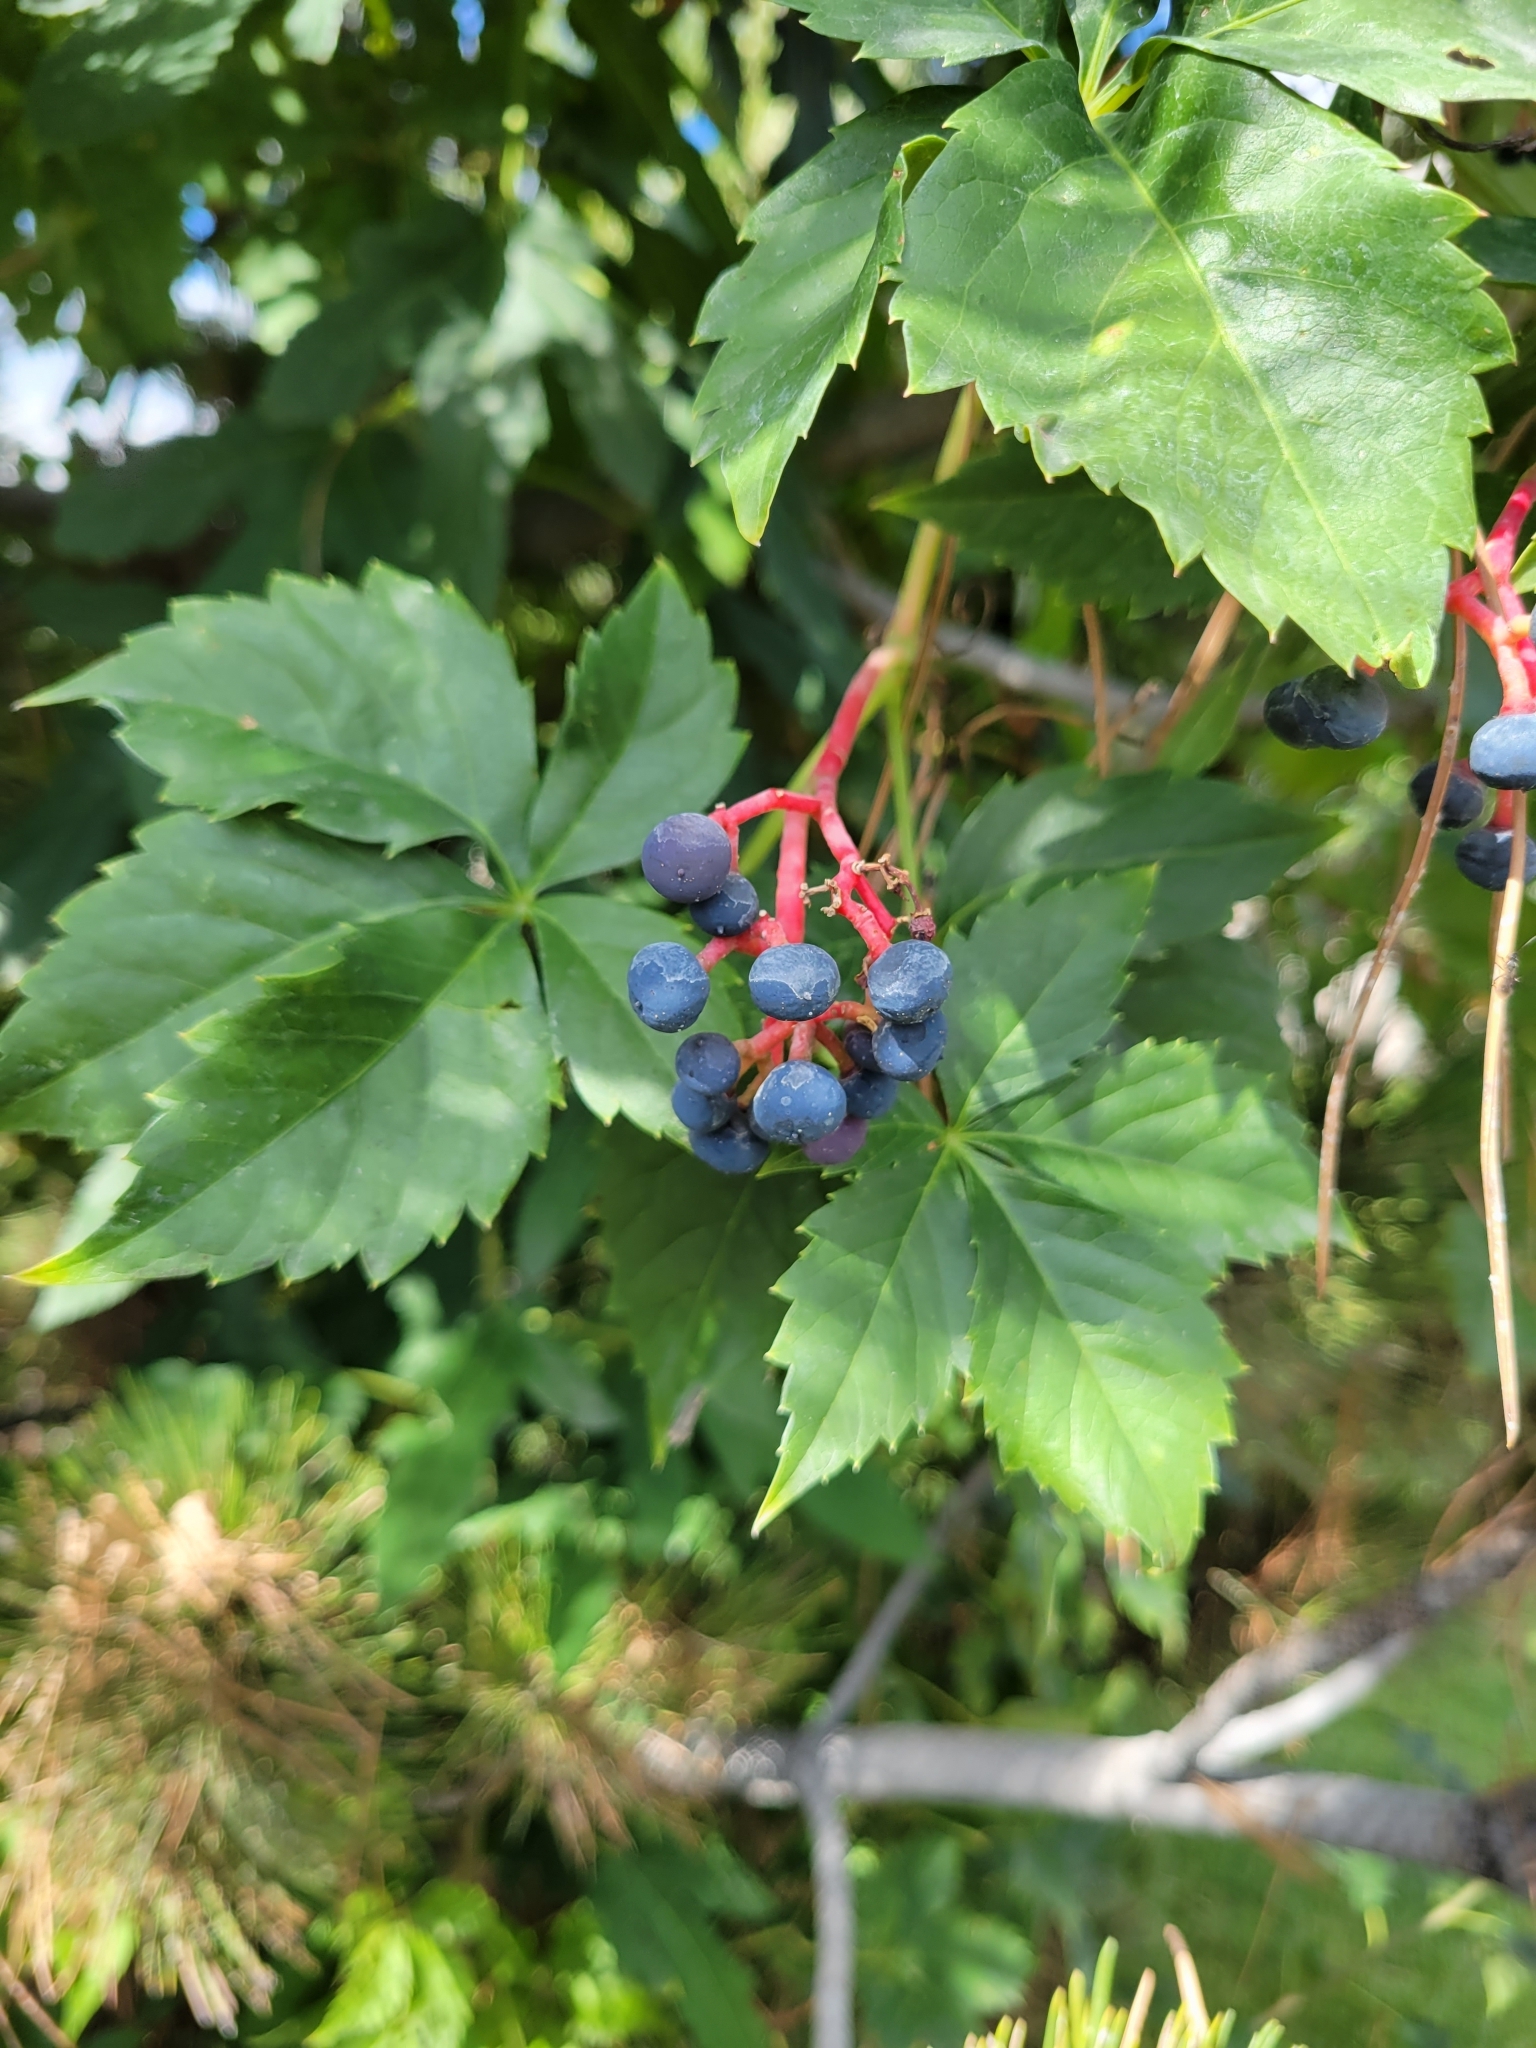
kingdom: Plantae
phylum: Tracheophyta
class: Magnoliopsida
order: Vitales
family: Vitaceae
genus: Parthenocissus
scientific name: Parthenocissus quinquefolia
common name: Virginia-creeper
